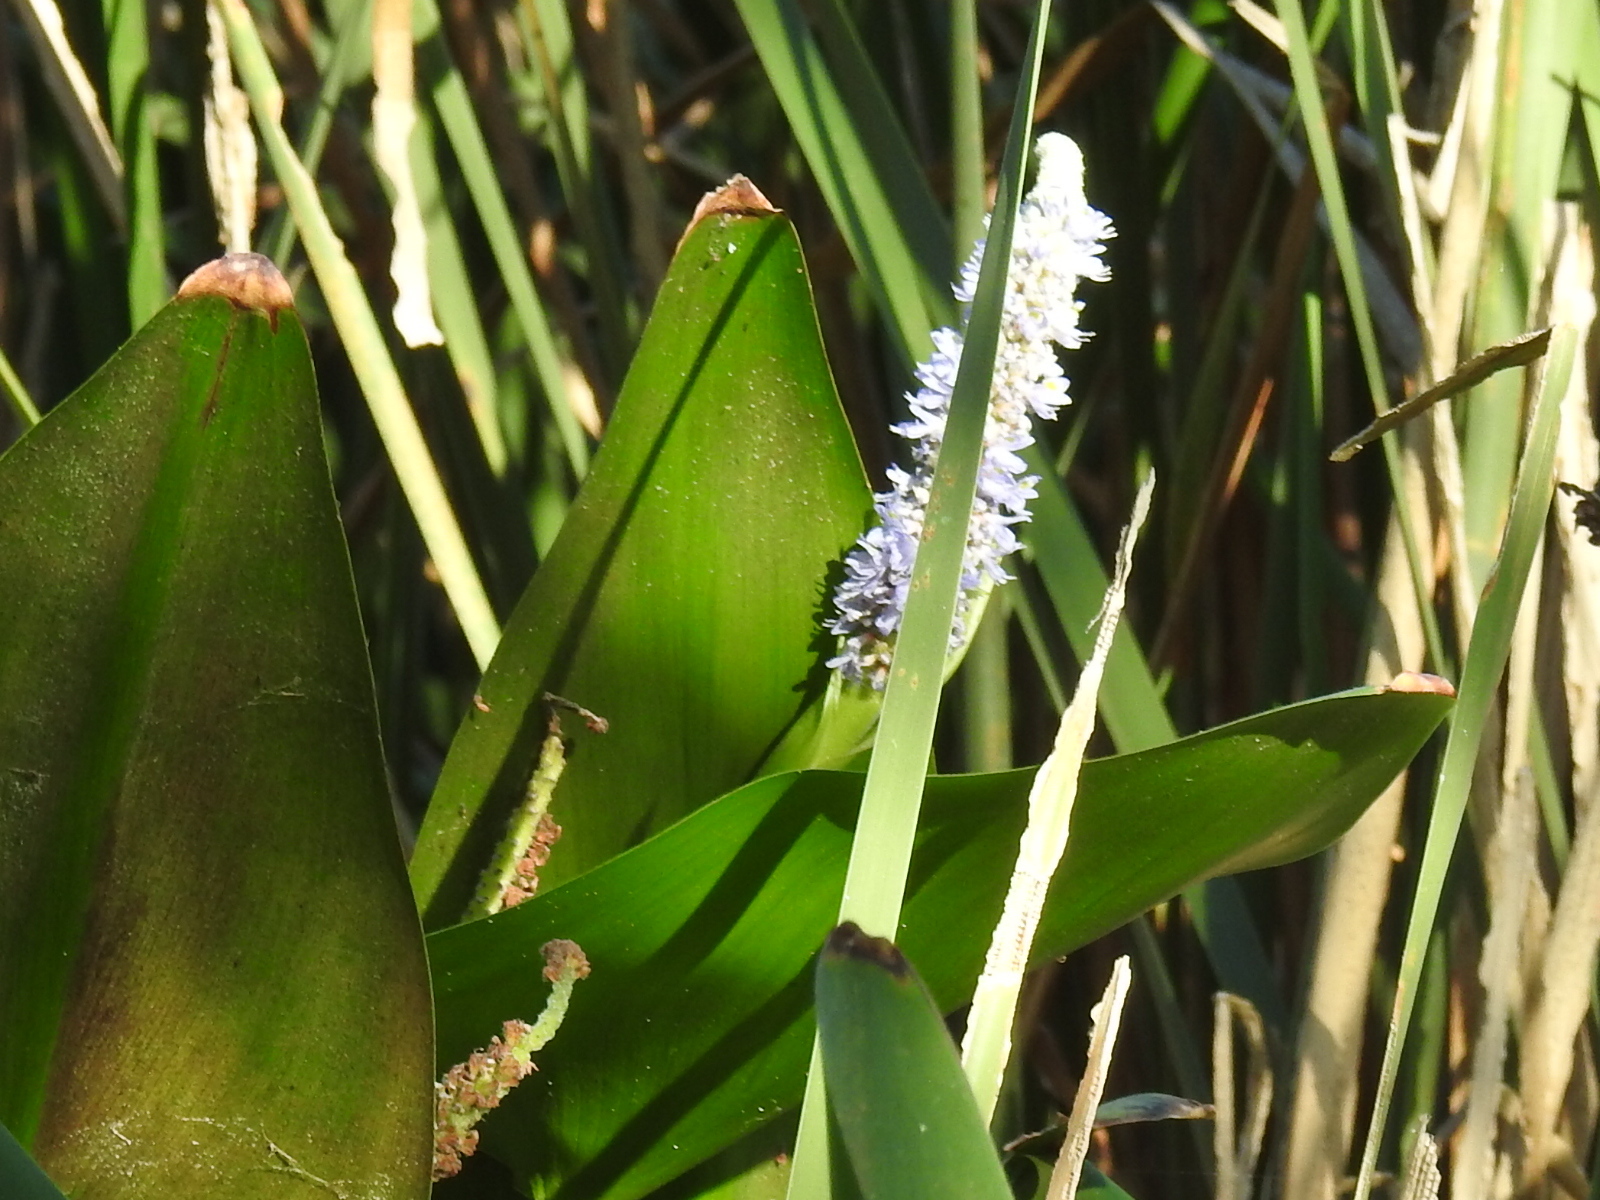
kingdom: Plantae
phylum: Tracheophyta
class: Liliopsida
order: Commelinales
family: Pontederiaceae
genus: Pontederia
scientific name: Pontederia cordata
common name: Pickerelweed
